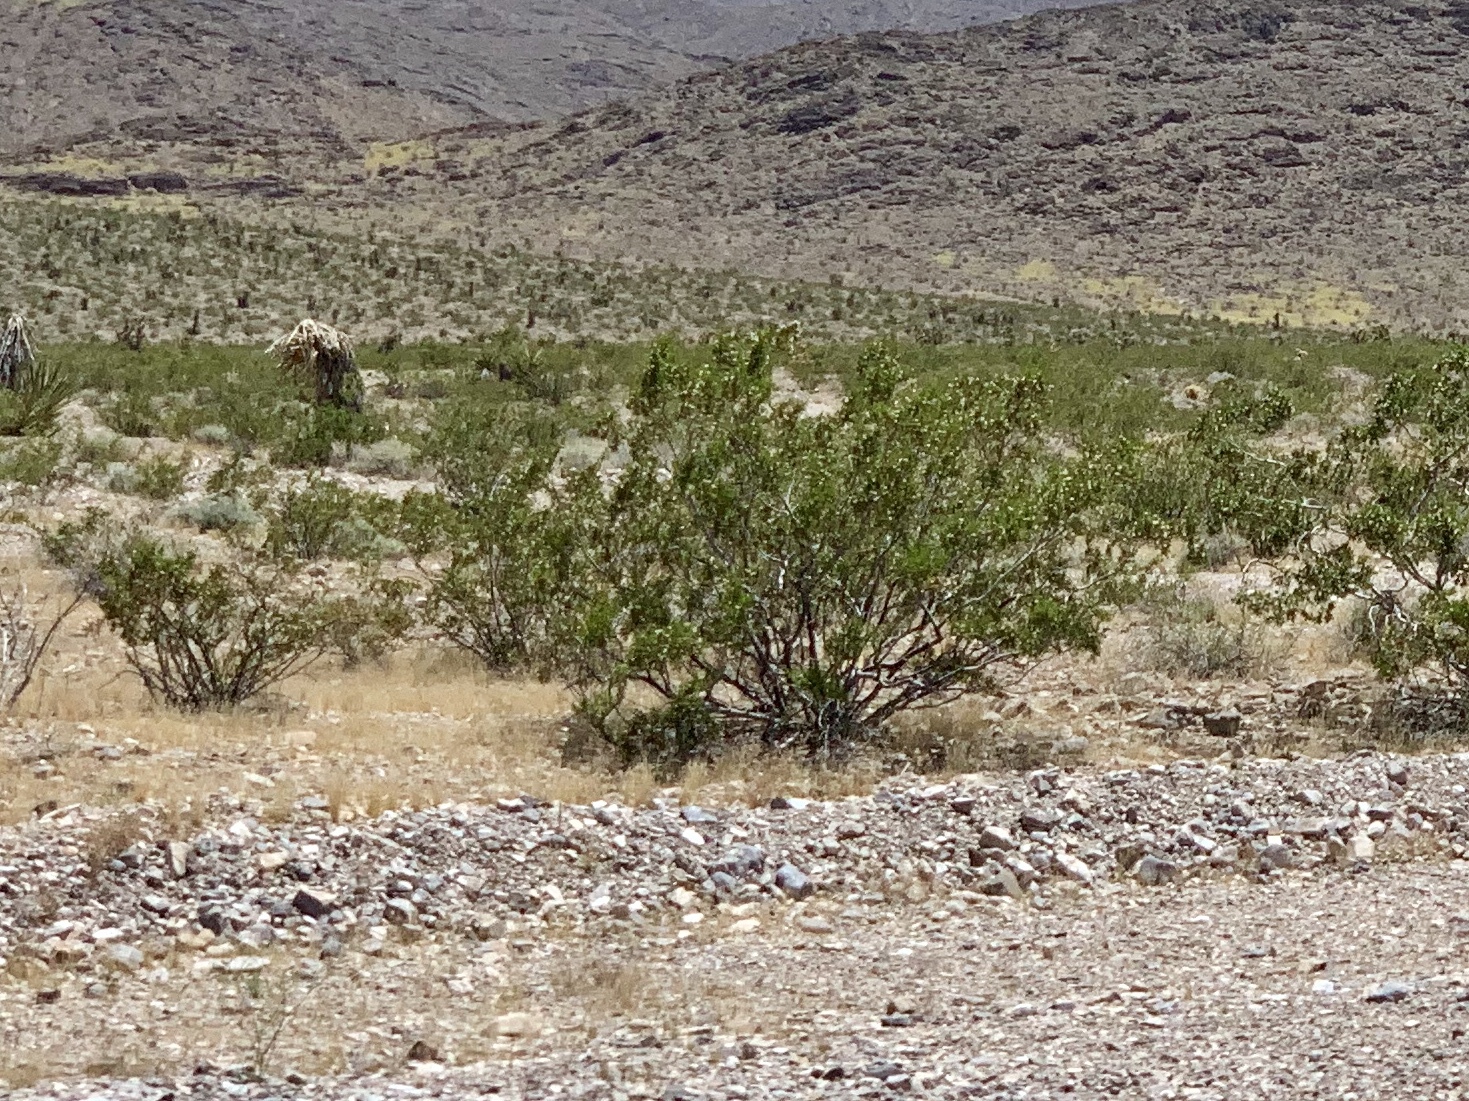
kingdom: Plantae
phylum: Tracheophyta
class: Magnoliopsida
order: Zygophyllales
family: Zygophyllaceae
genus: Larrea
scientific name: Larrea tridentata
